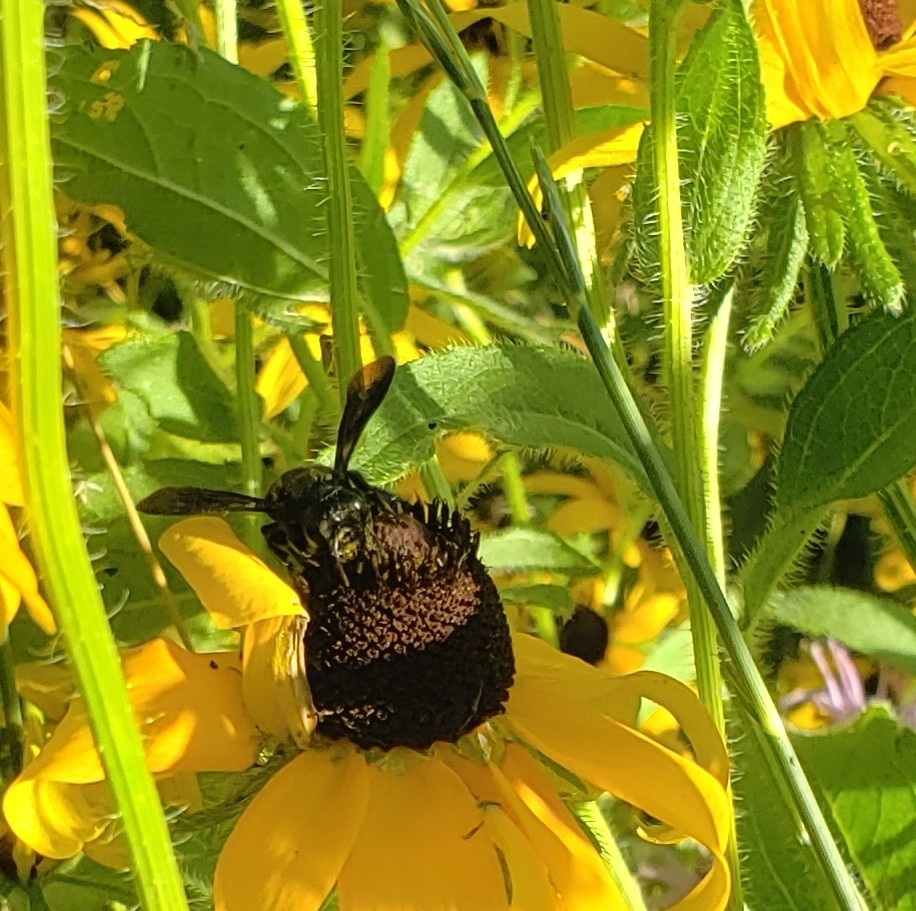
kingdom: Animalia
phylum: Arthropoda
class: Insecta
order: Hymenoptera
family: Megachilidae
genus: Megachile
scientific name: Megachile xylocopoides
